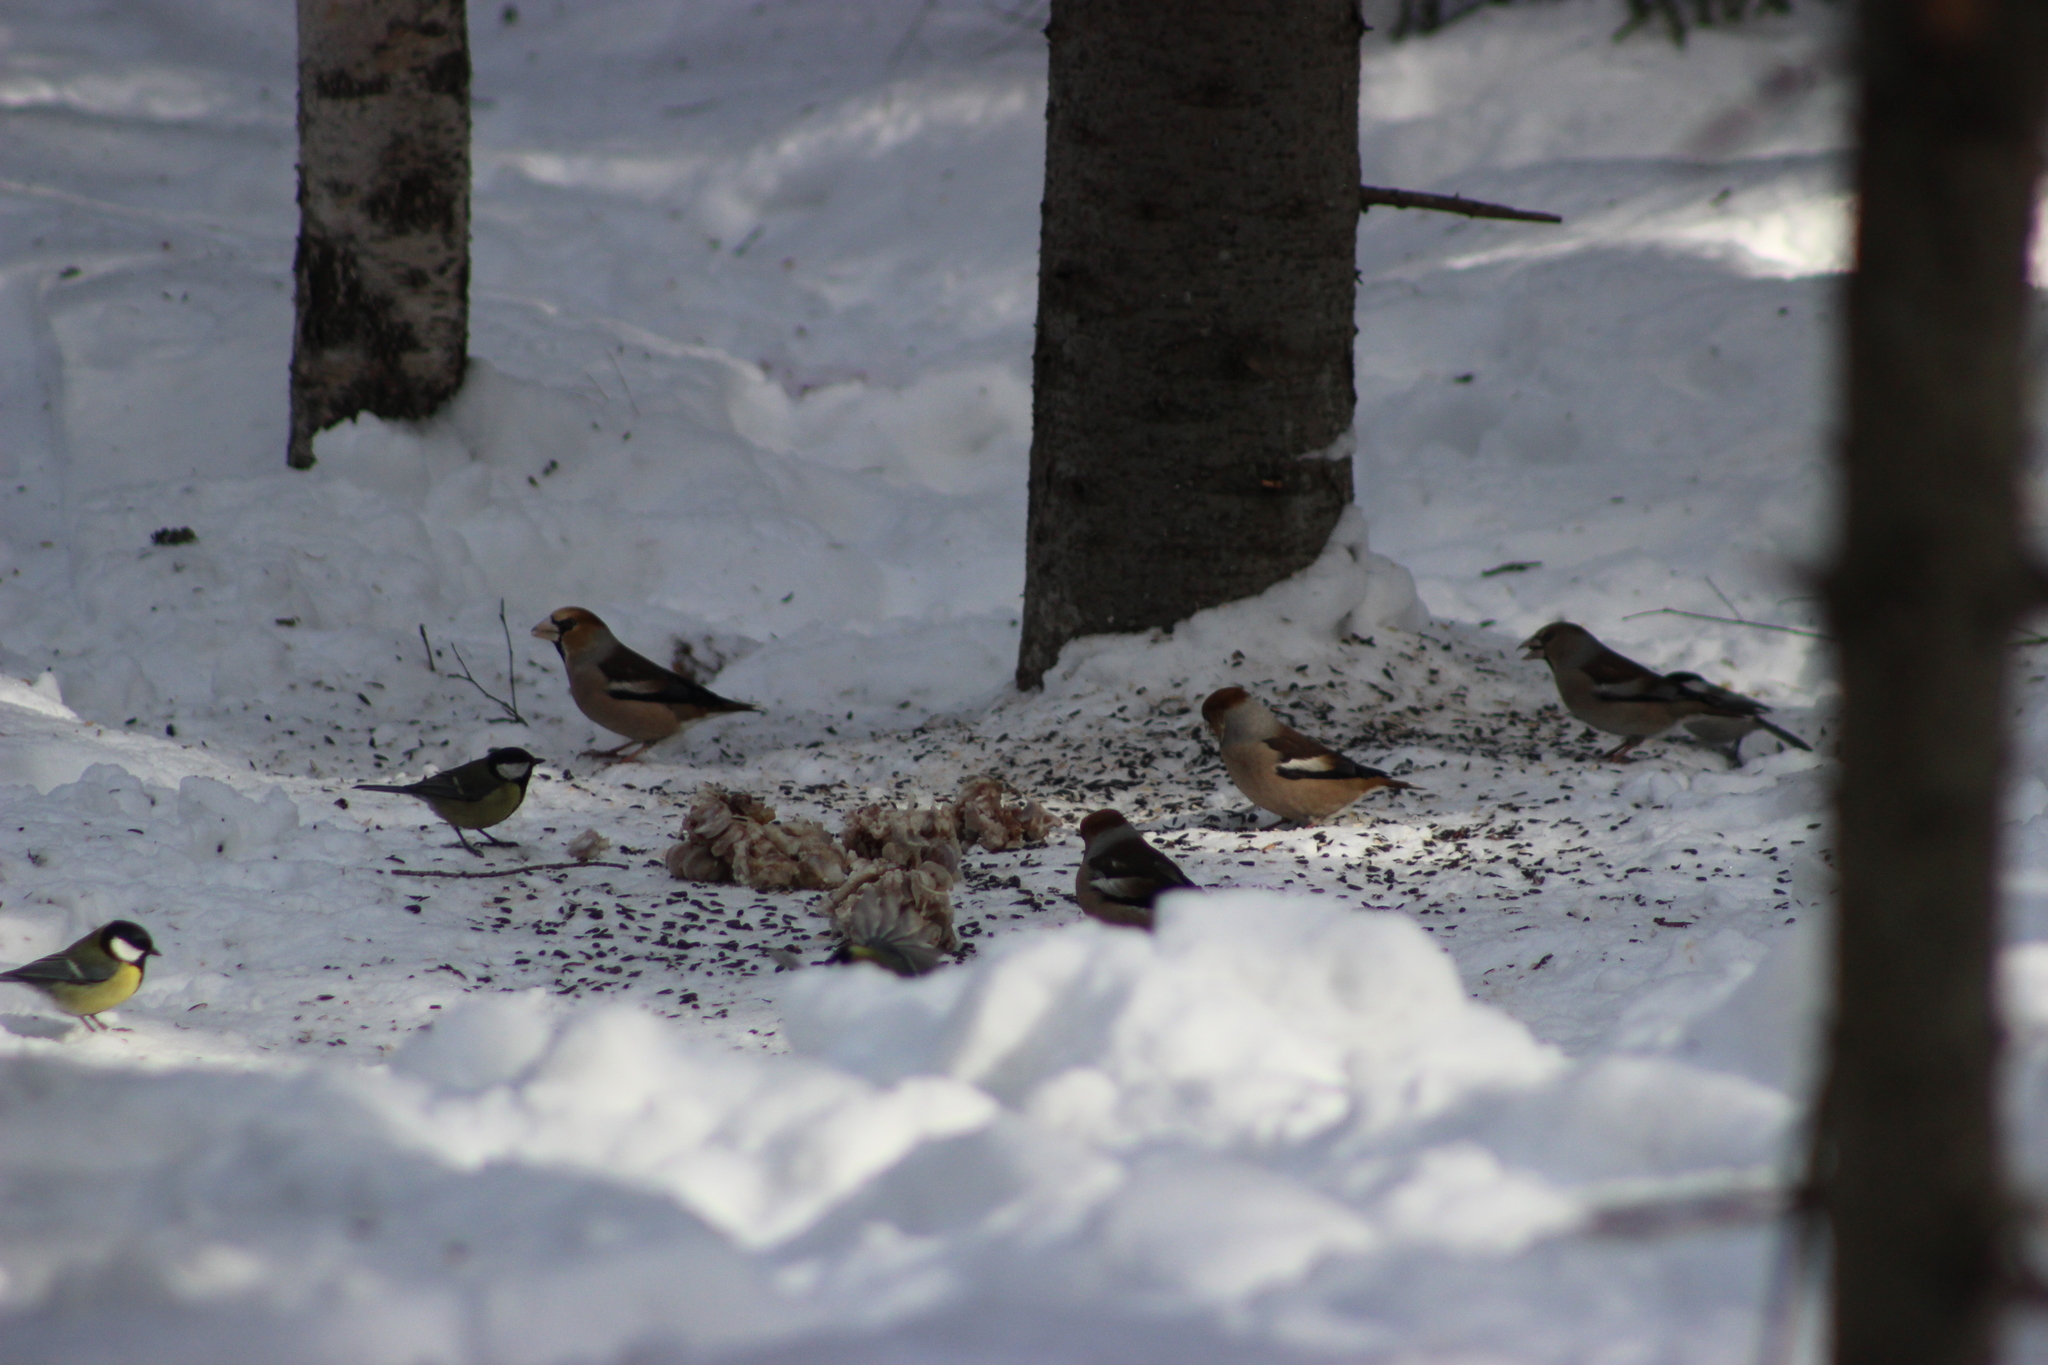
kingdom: Animalia
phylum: Chordata
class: Aves
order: Passeriformes
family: Fringillidae
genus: Coccothraustes
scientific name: Coccothraustes coccothraustes
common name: Hawfinch
